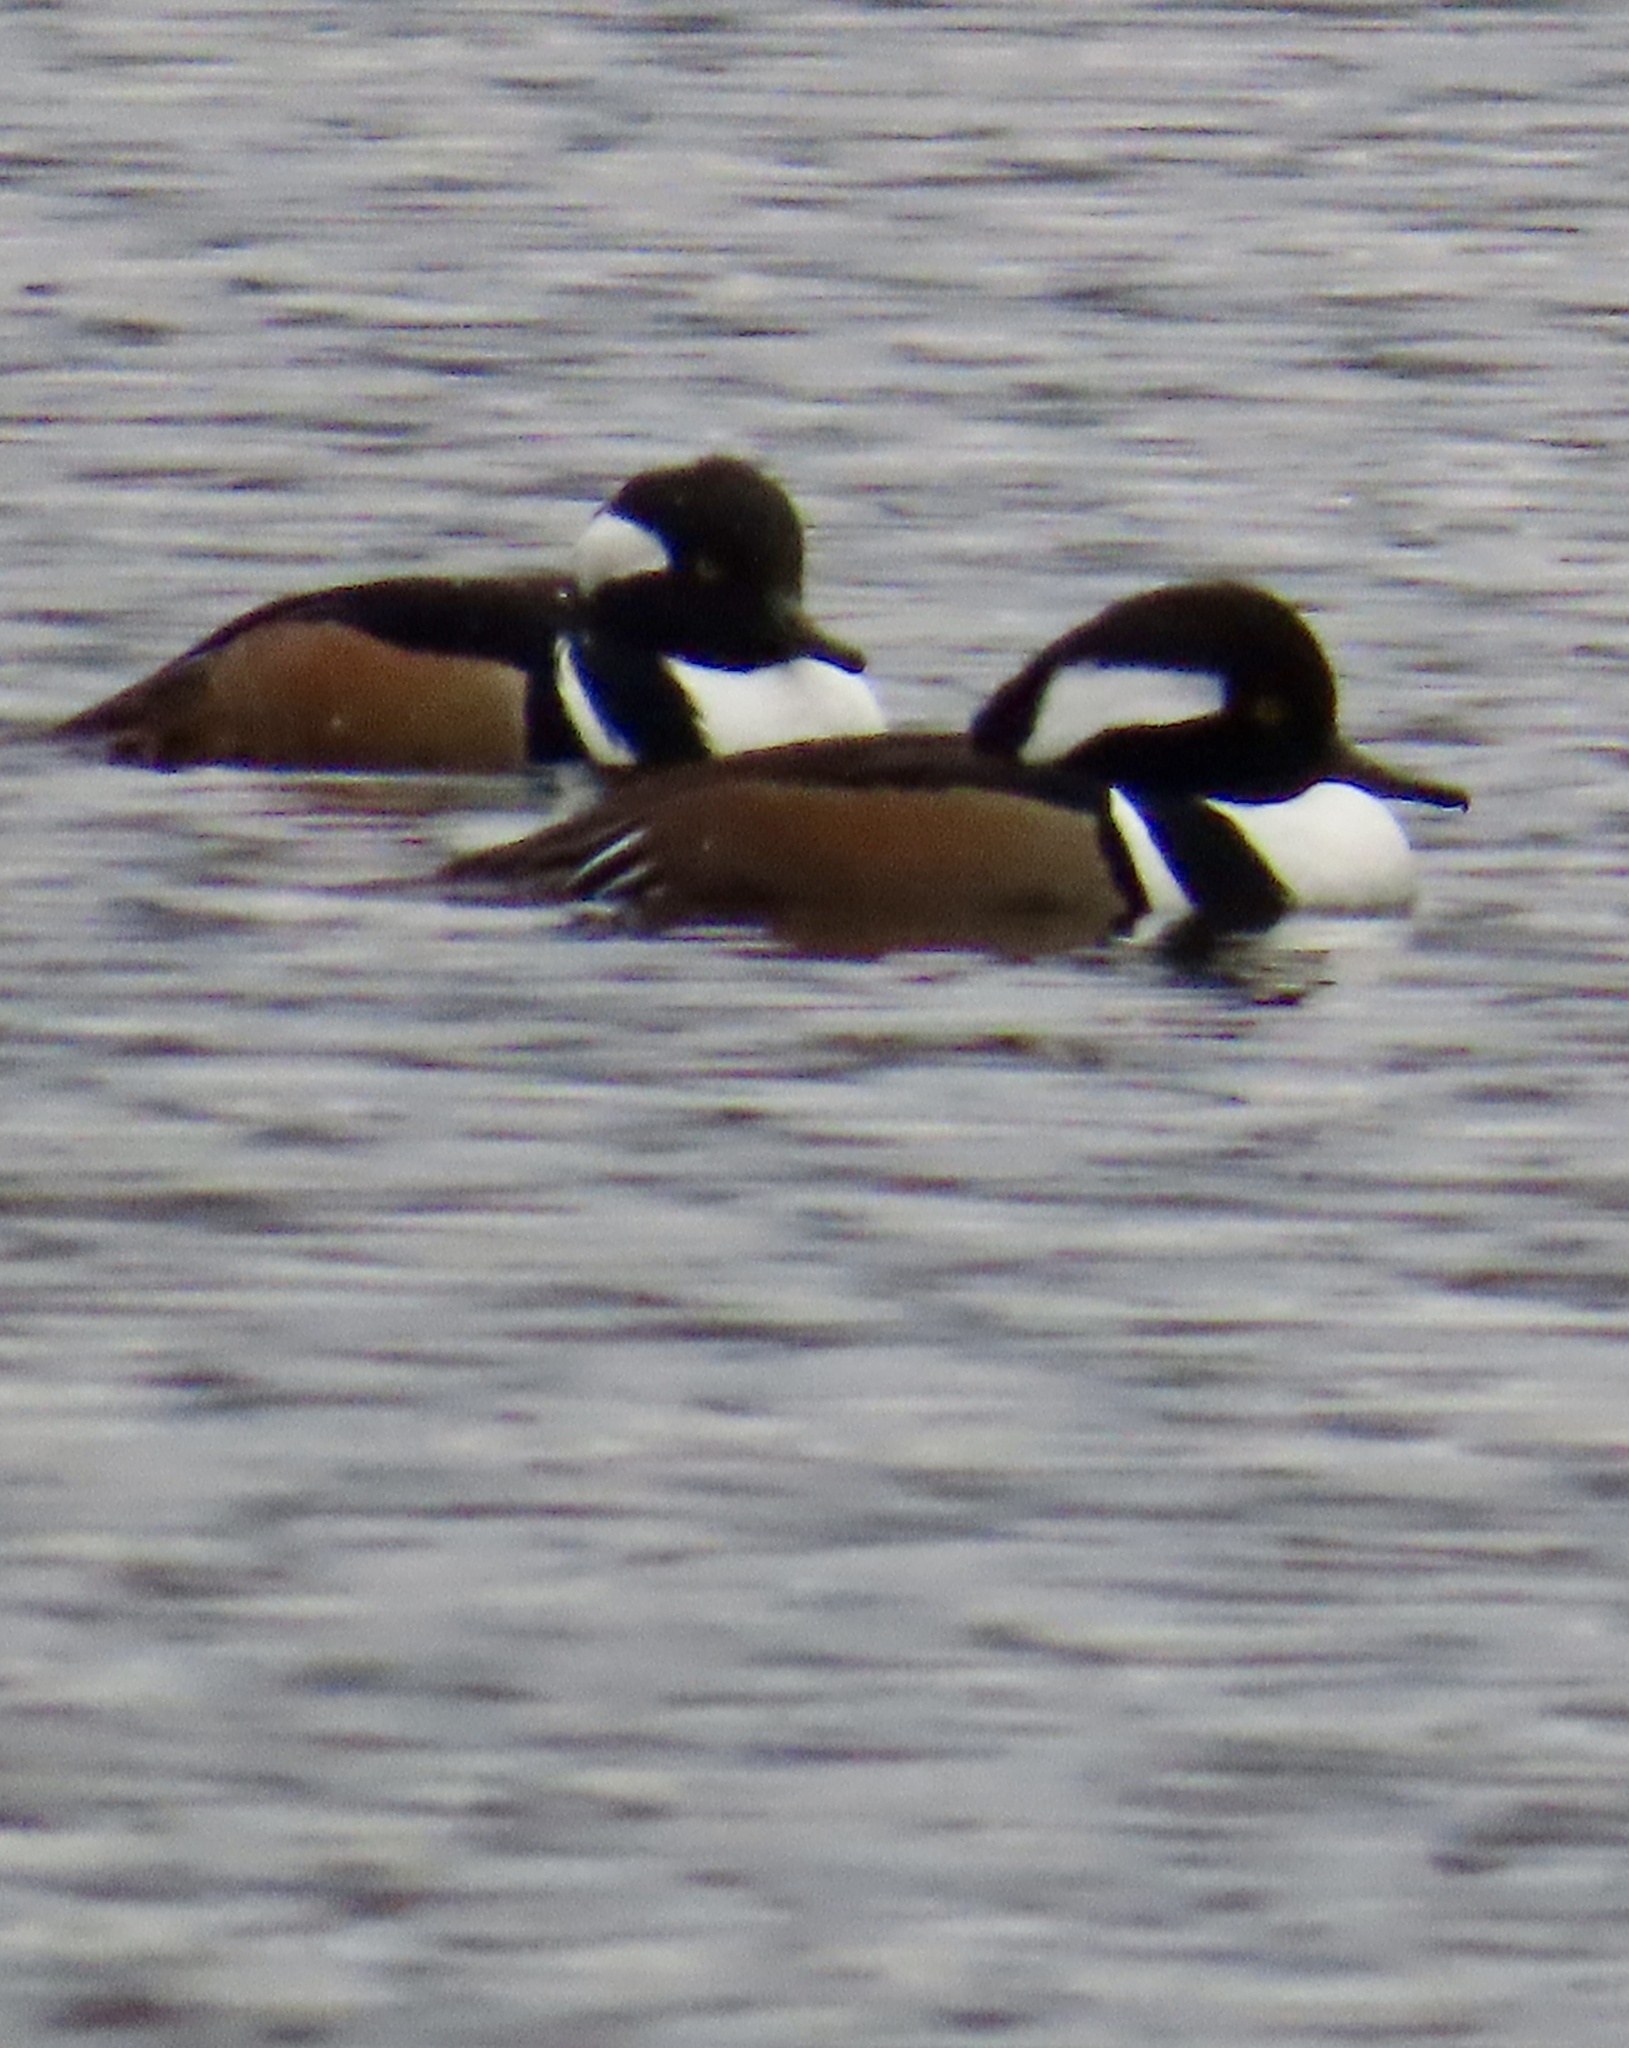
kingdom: Animalia
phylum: Chordata
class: Aves
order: Anseriformes
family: Anatidae
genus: Lophodytes
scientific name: Lophodytes cucullatus
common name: Hooded merganser
